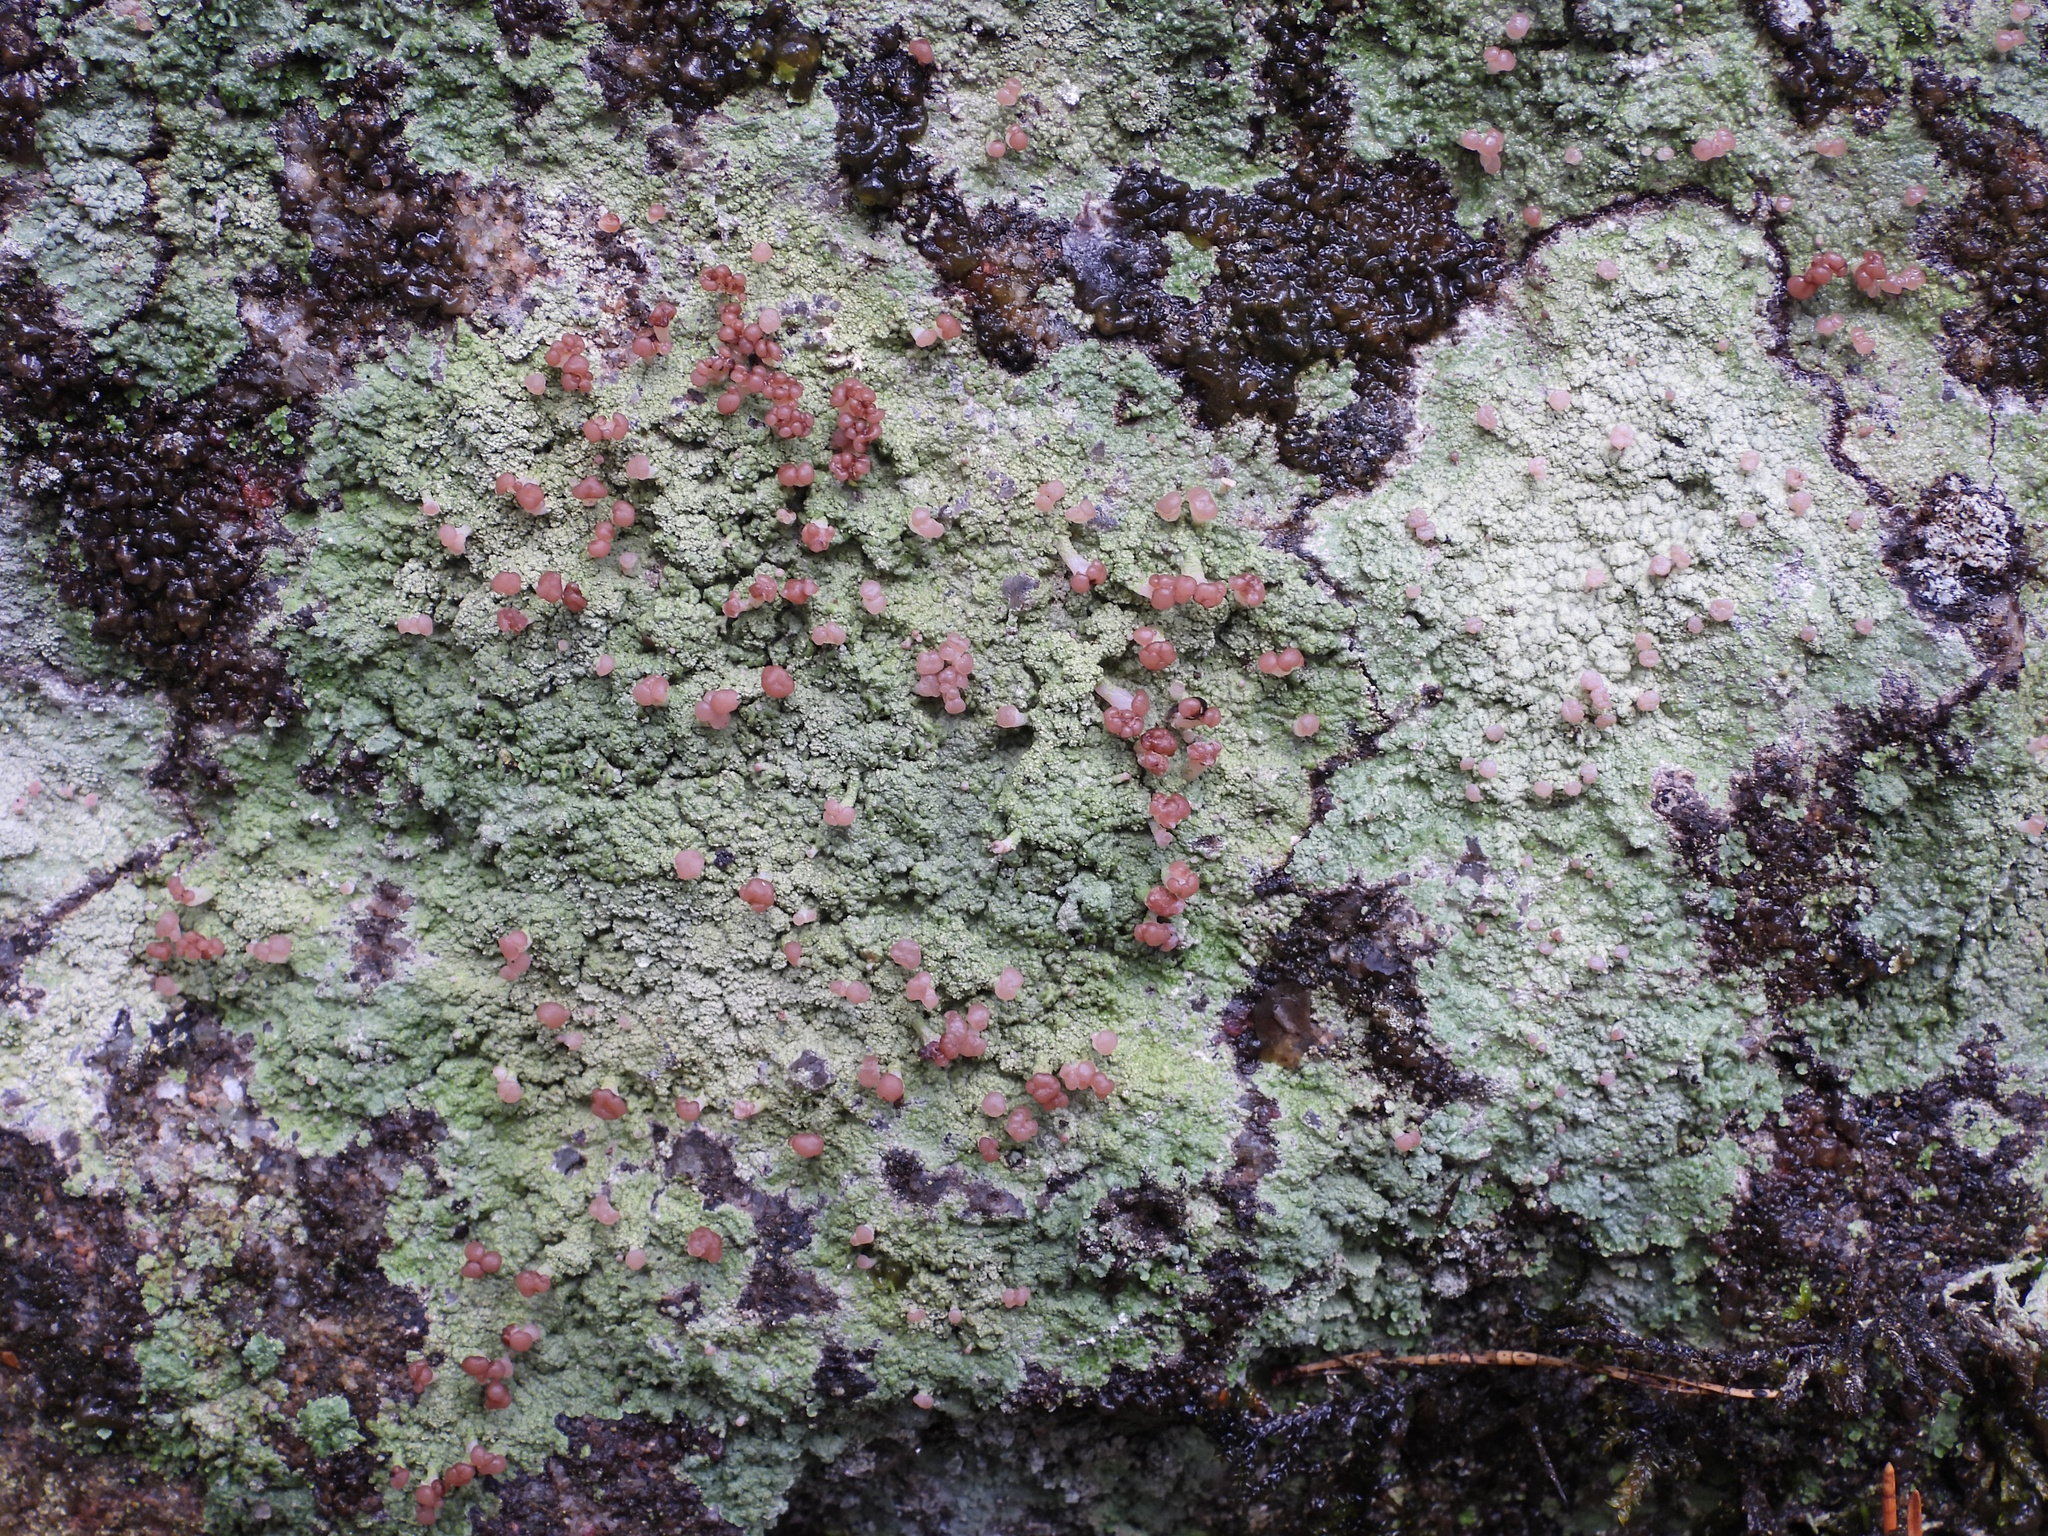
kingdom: Fungi
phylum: Ascomycota
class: Lecanoromycetes
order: Baeomycetales
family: Baeomycetaceae
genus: Baeomyces
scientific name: Baeomyces rufus
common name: Brown beret lichen
